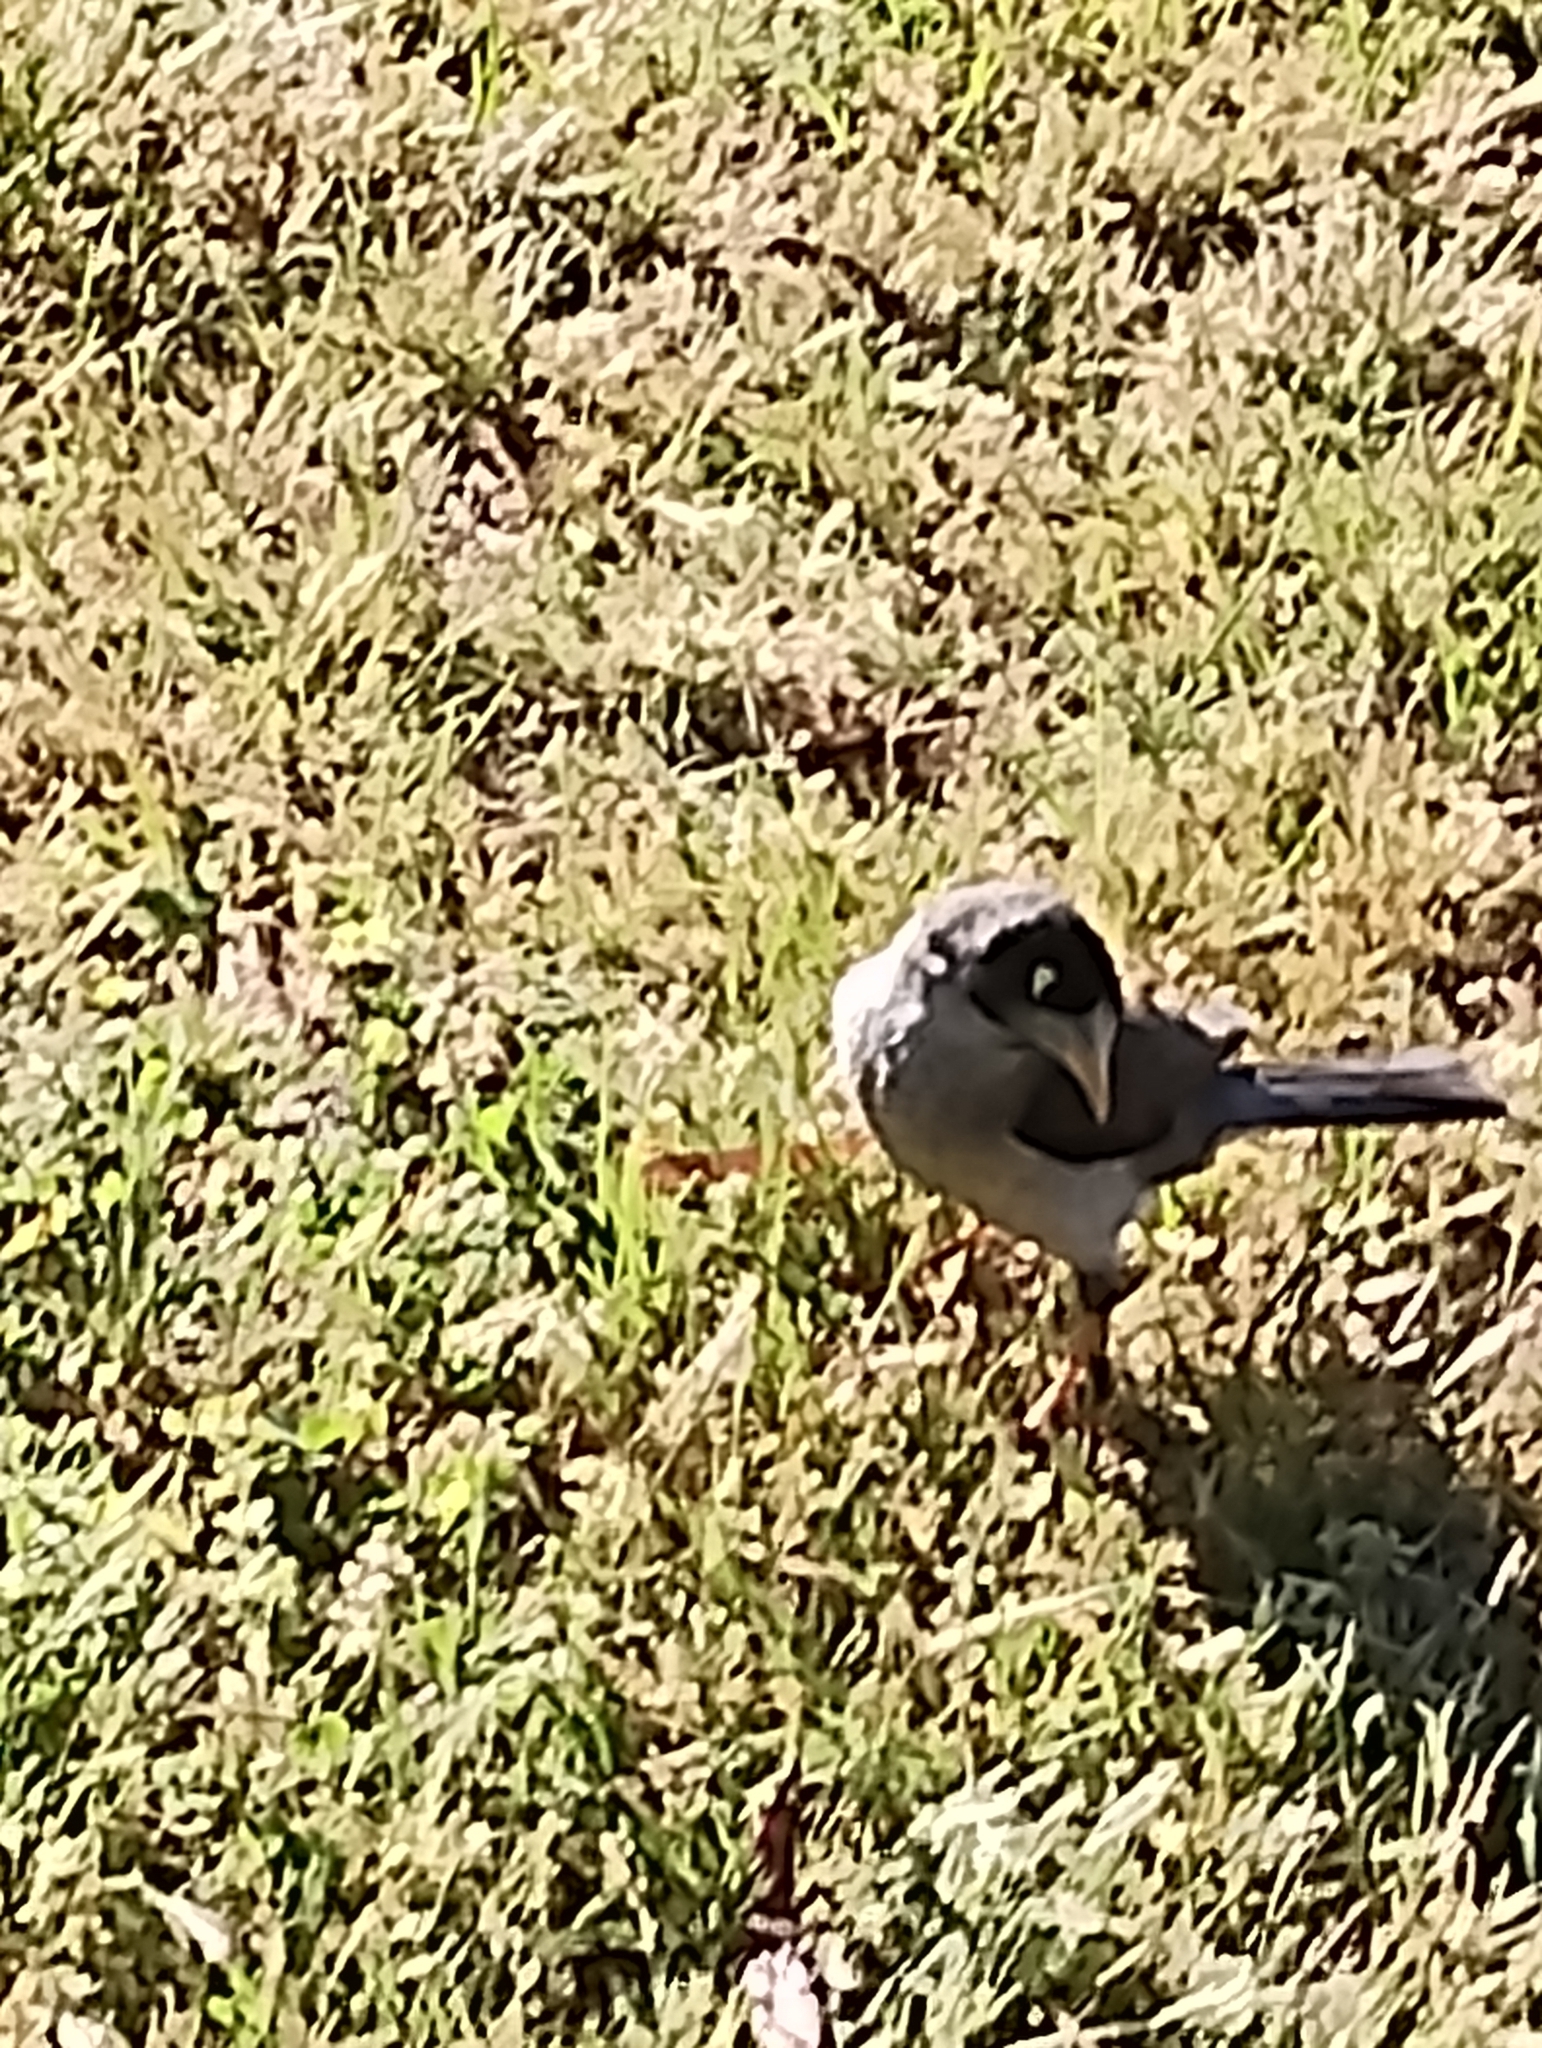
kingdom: Animalia
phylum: Chordata
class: Aves
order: Passeriformes
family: Meliphagidae
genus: Manorina
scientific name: Manorina melanocephala
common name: Noisy miner
